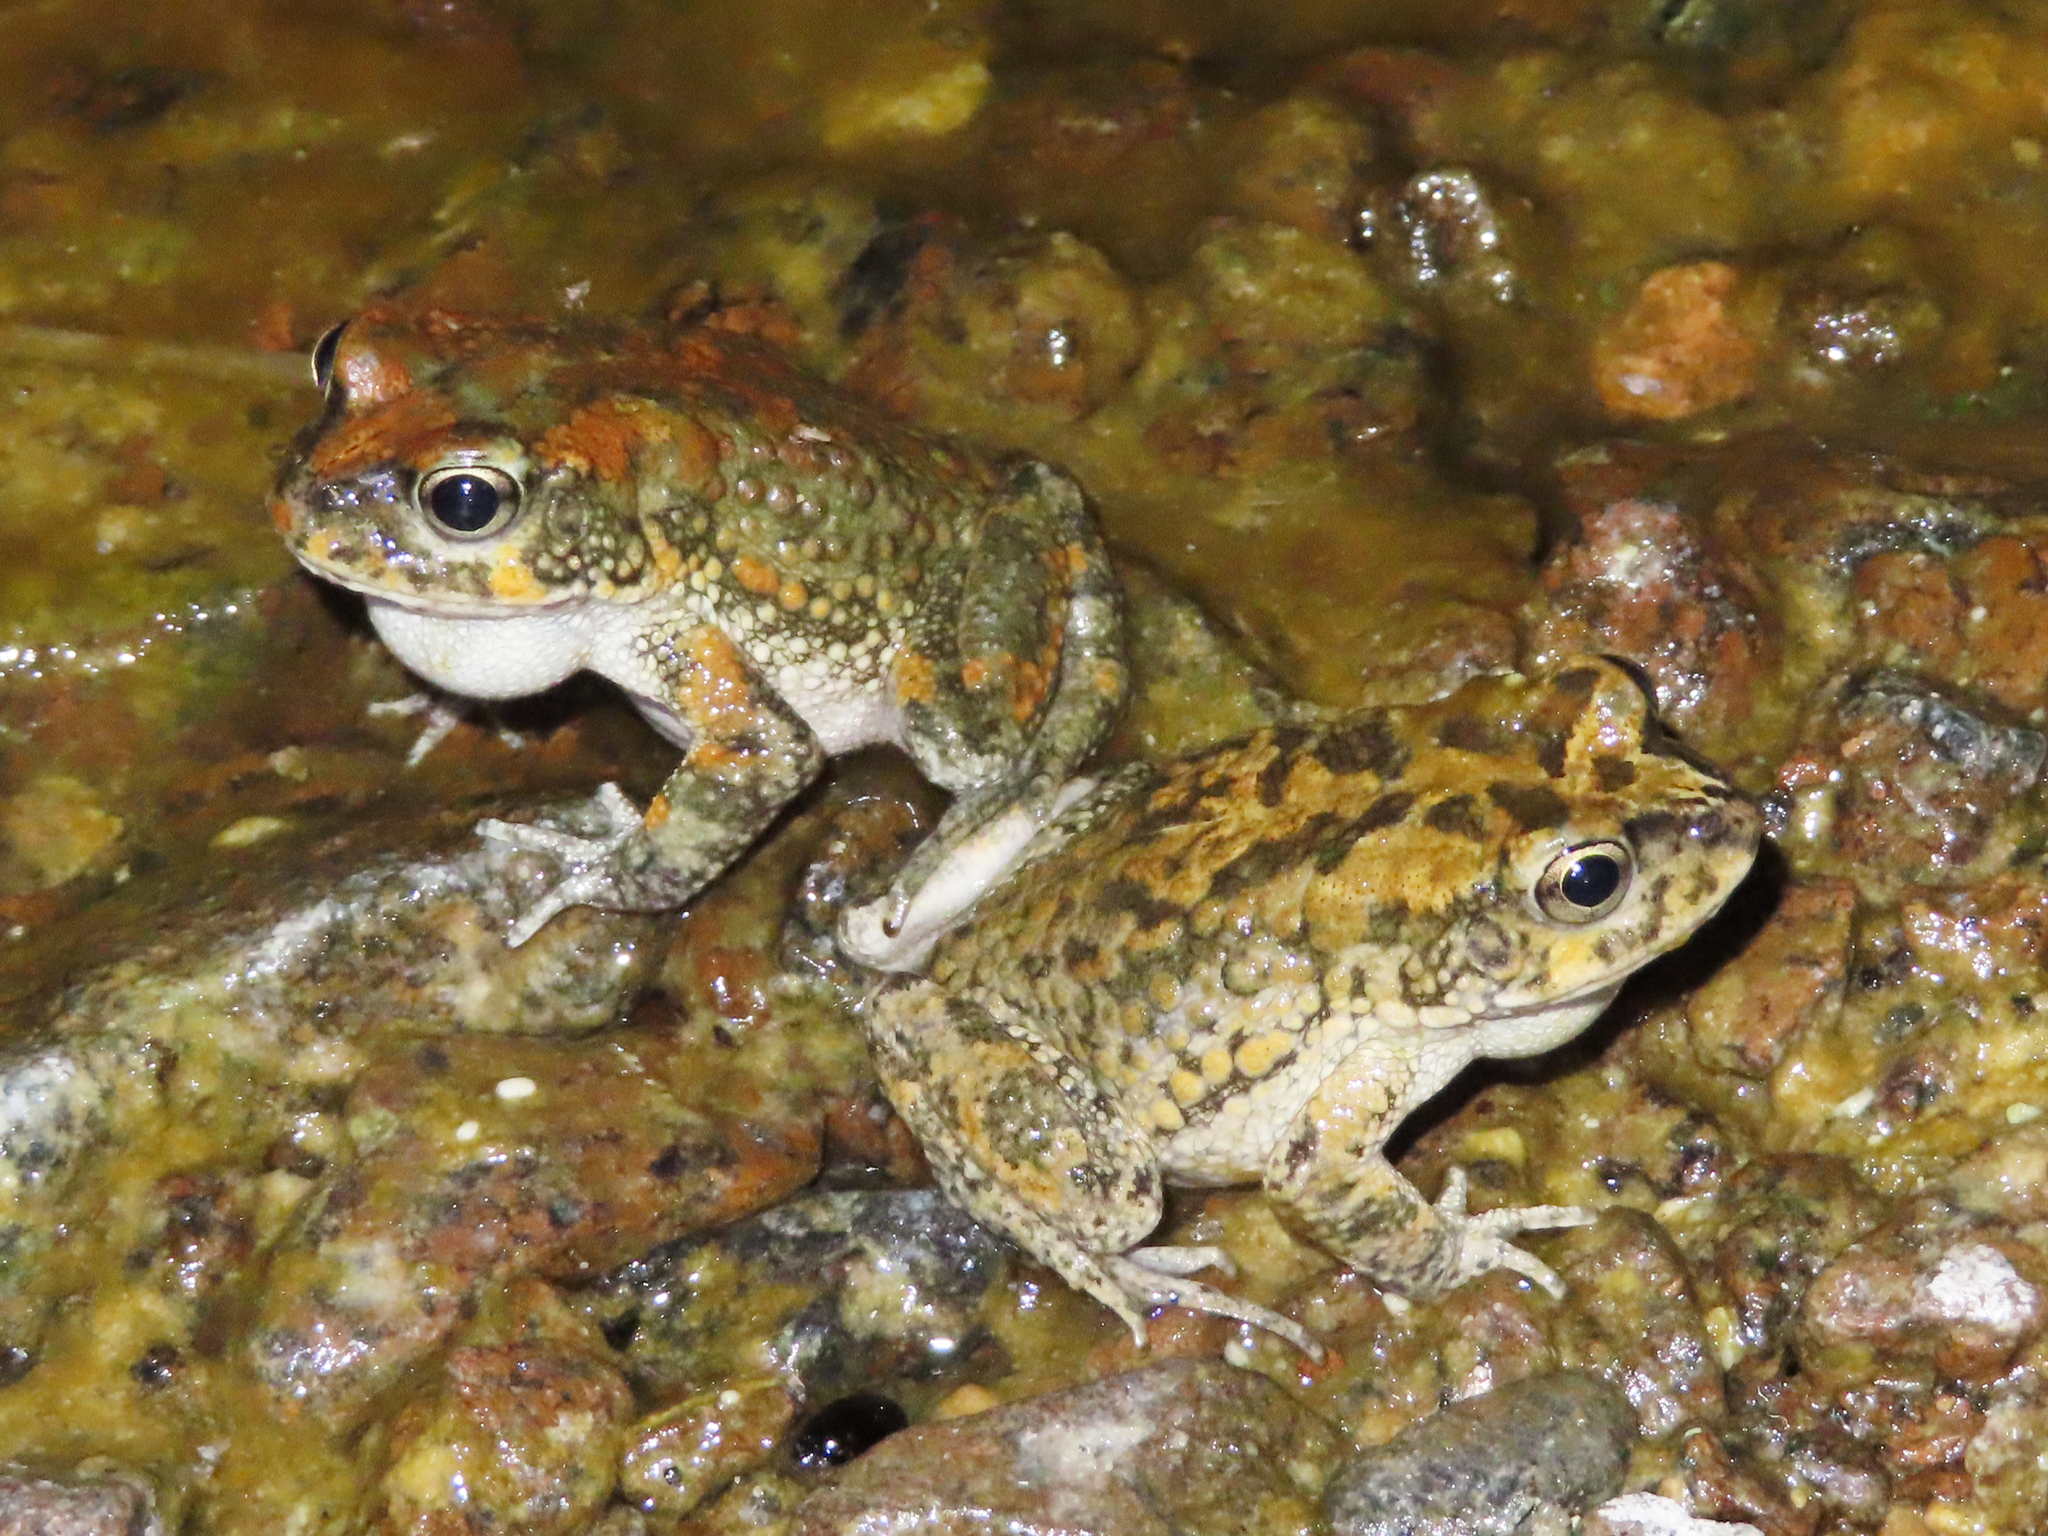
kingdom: Animalia
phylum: Chordata
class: Amphibia
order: Anura
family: Bufonidae
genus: Sclerophrys
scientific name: Sclerophrys arabica
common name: Arabian toad
